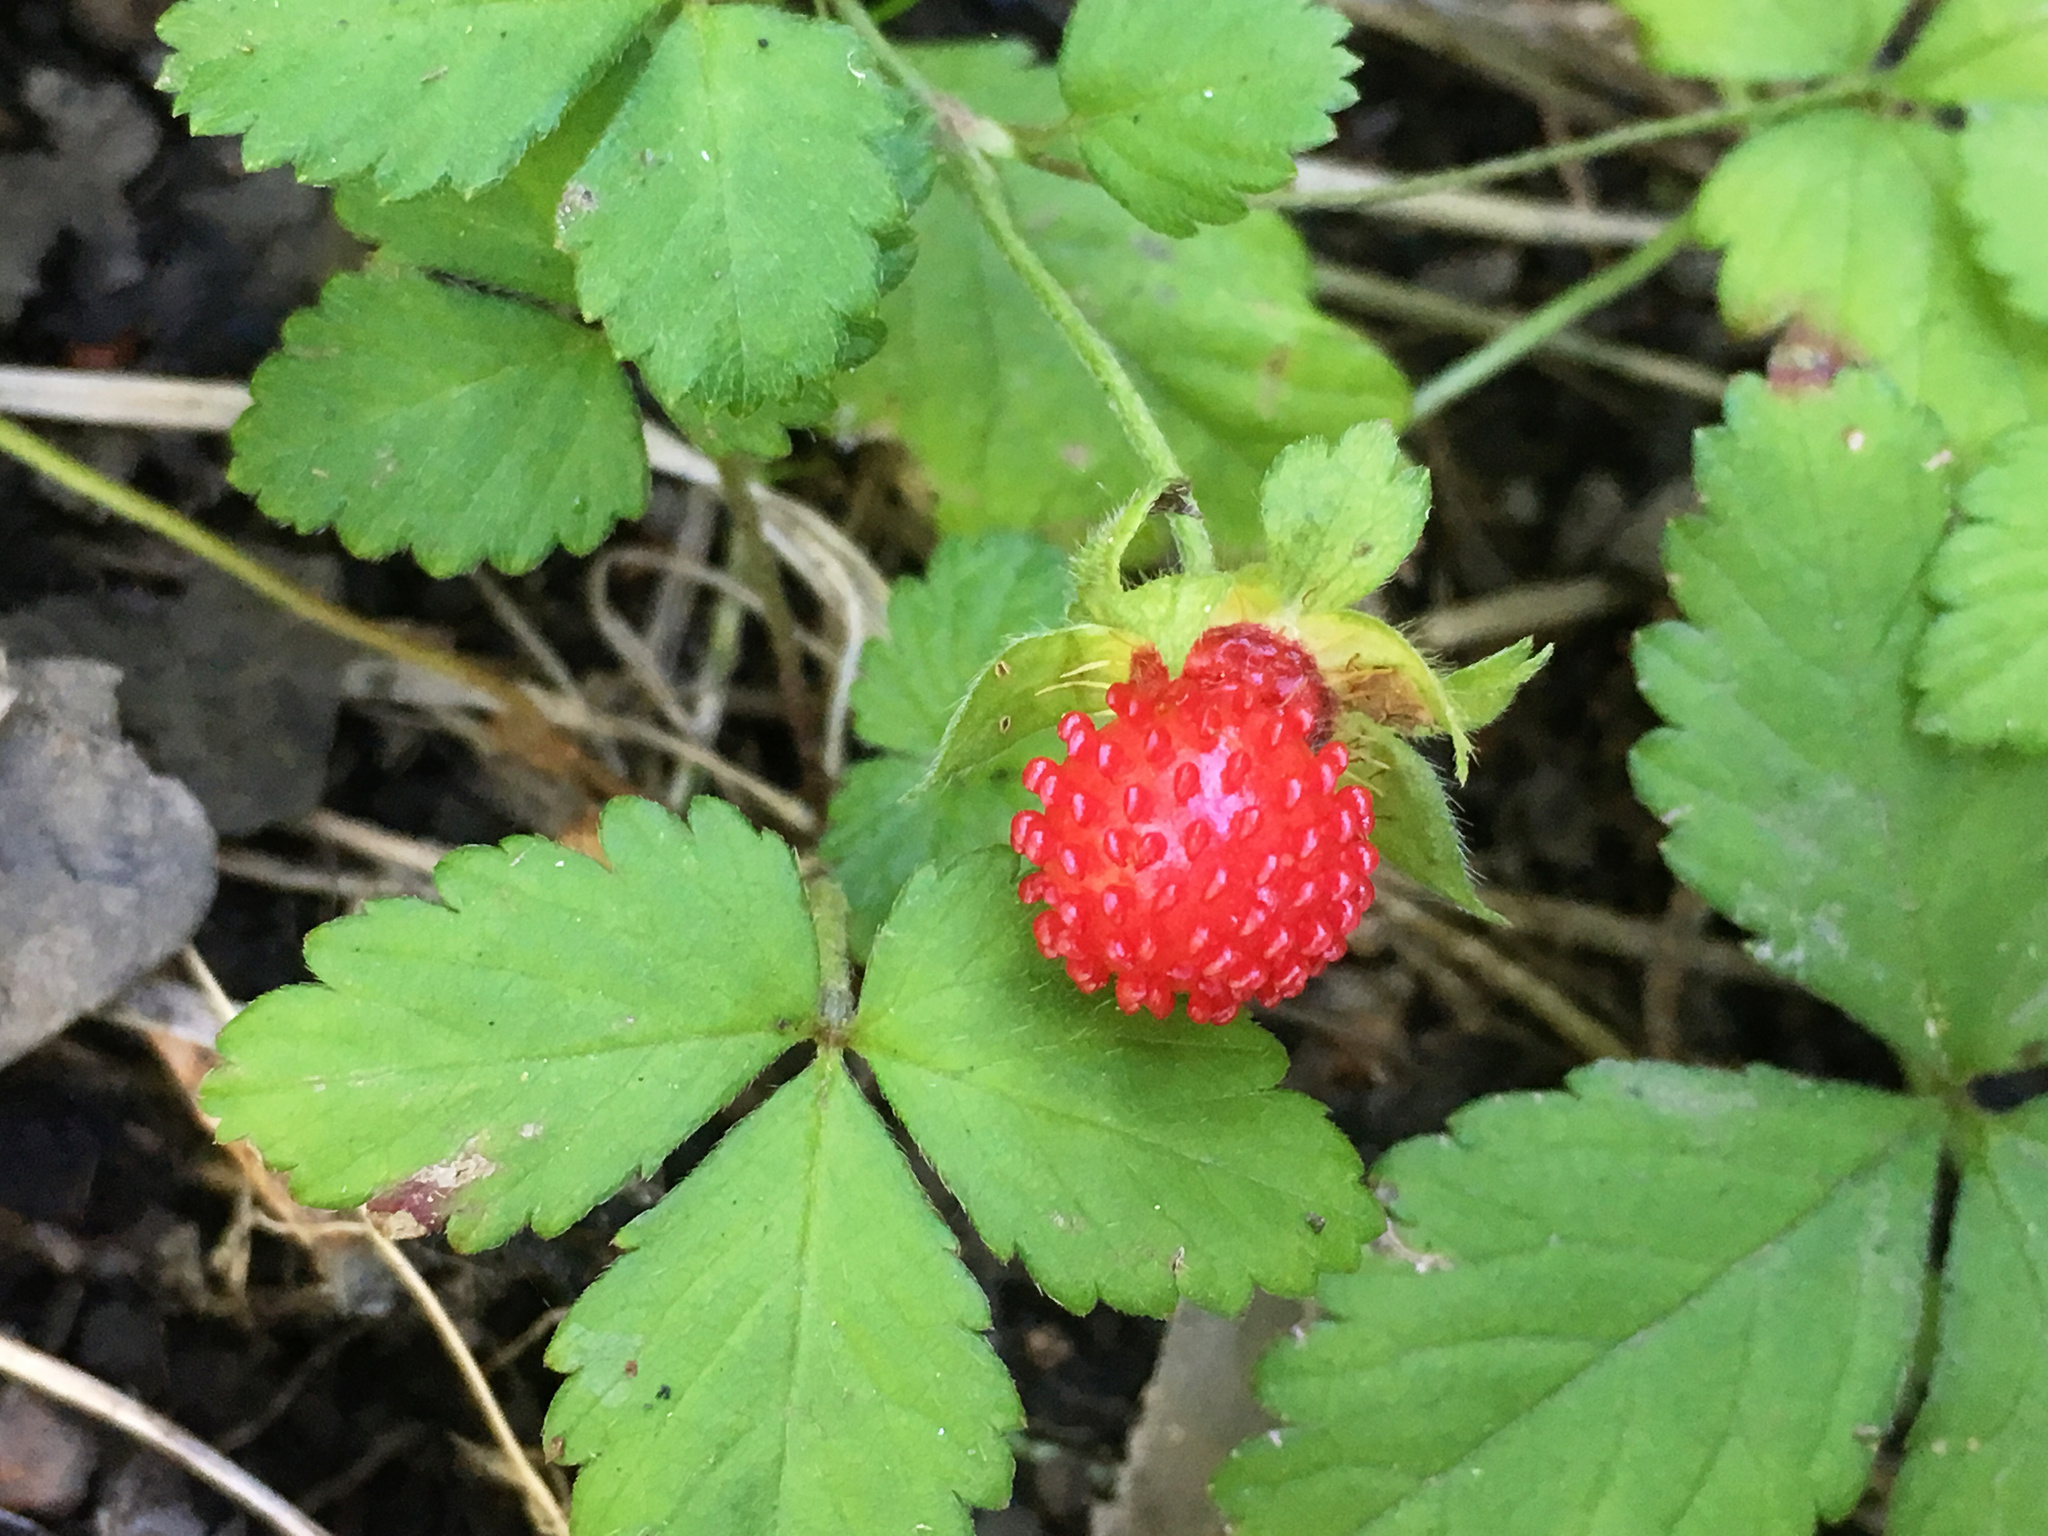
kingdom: Plantae
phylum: Tracheophyta
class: Magnoliopsida
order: Rosales
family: Rosaceae
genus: Potentilla
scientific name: Potentilla indica
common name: Yellow-flowered strawberry
